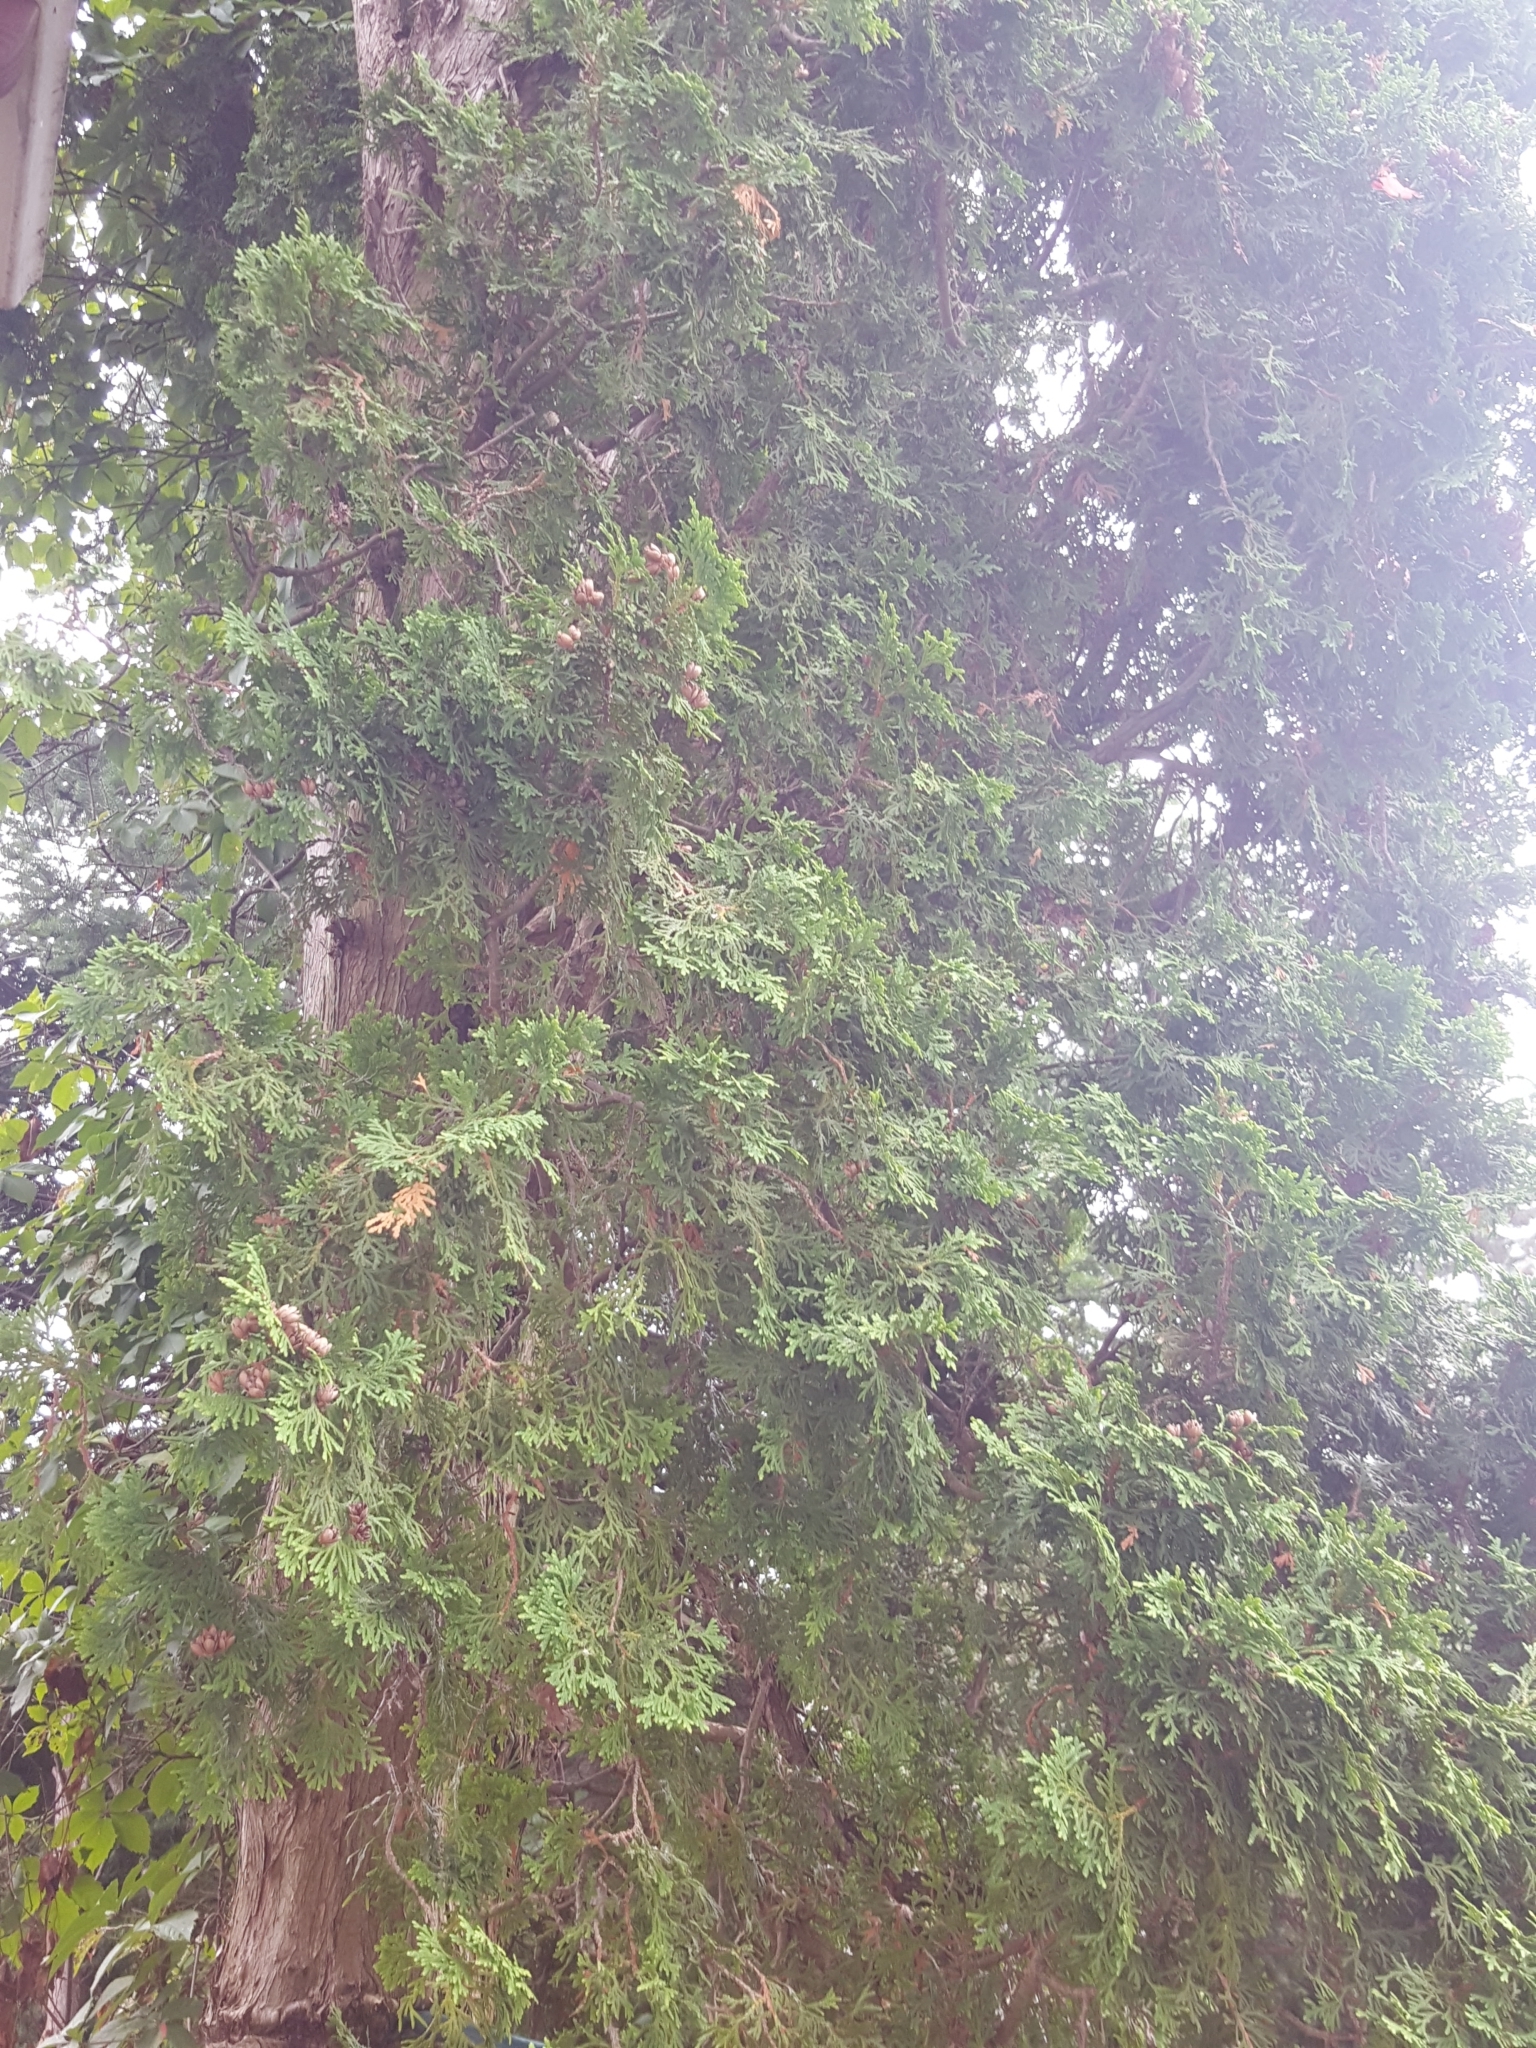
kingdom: Plantae
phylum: Tracheophyta
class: Pinopsida
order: Pinales
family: Cupressaceae
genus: Thuja
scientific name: Thuja occidentalis
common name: Northern white-cedar
